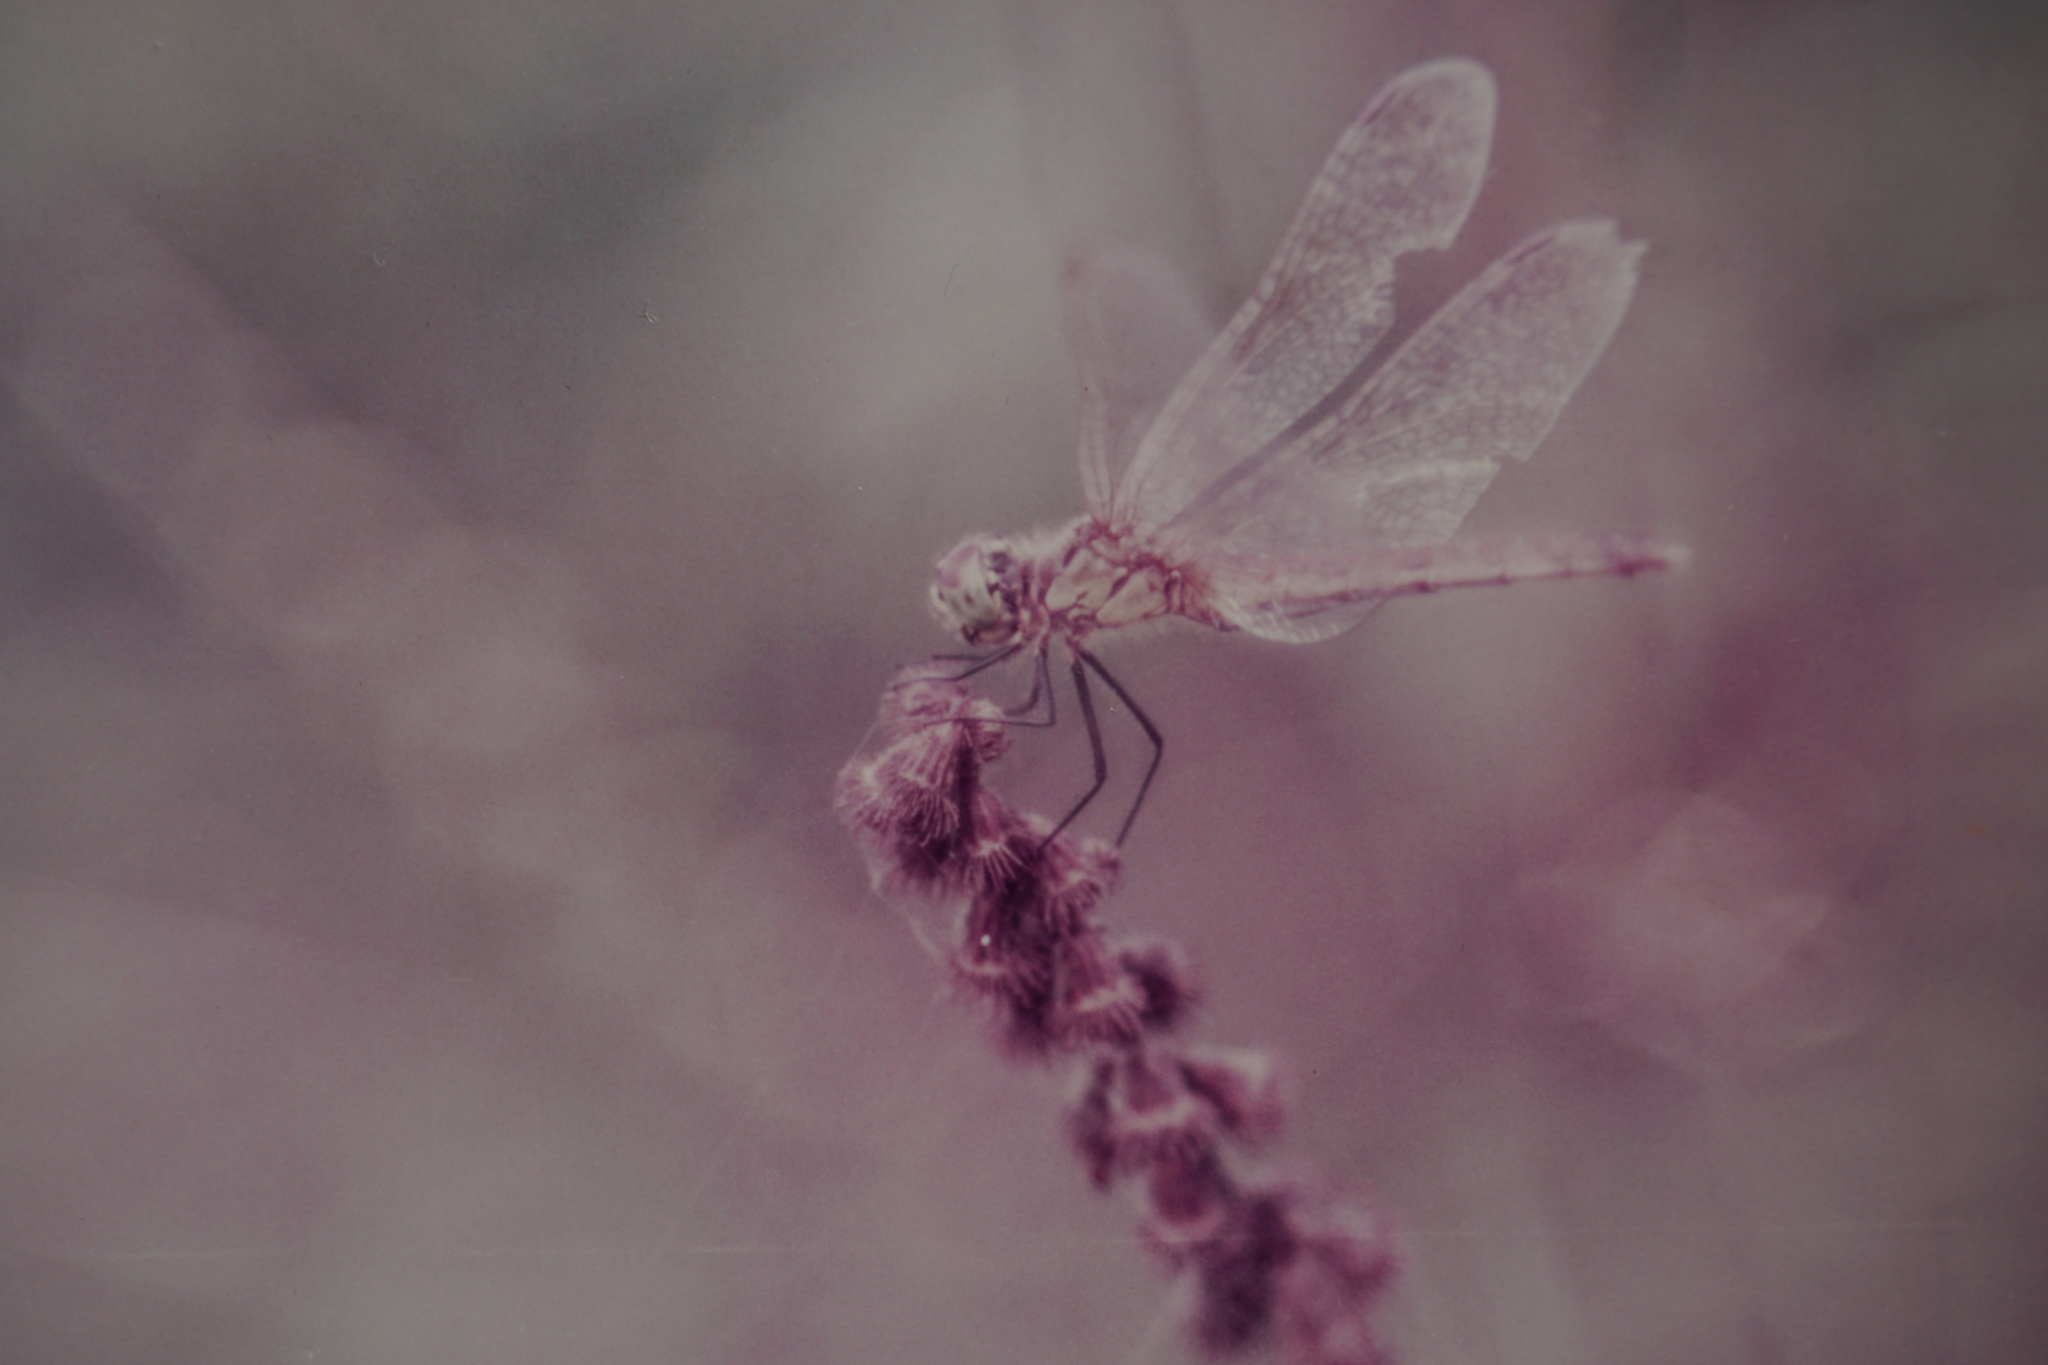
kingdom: Animalia
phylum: Arthropoda
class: Insecta
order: Odonata
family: Libellulidae
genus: Sympetrum
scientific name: Sympetrum fonscolombii
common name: Red-veined darter
